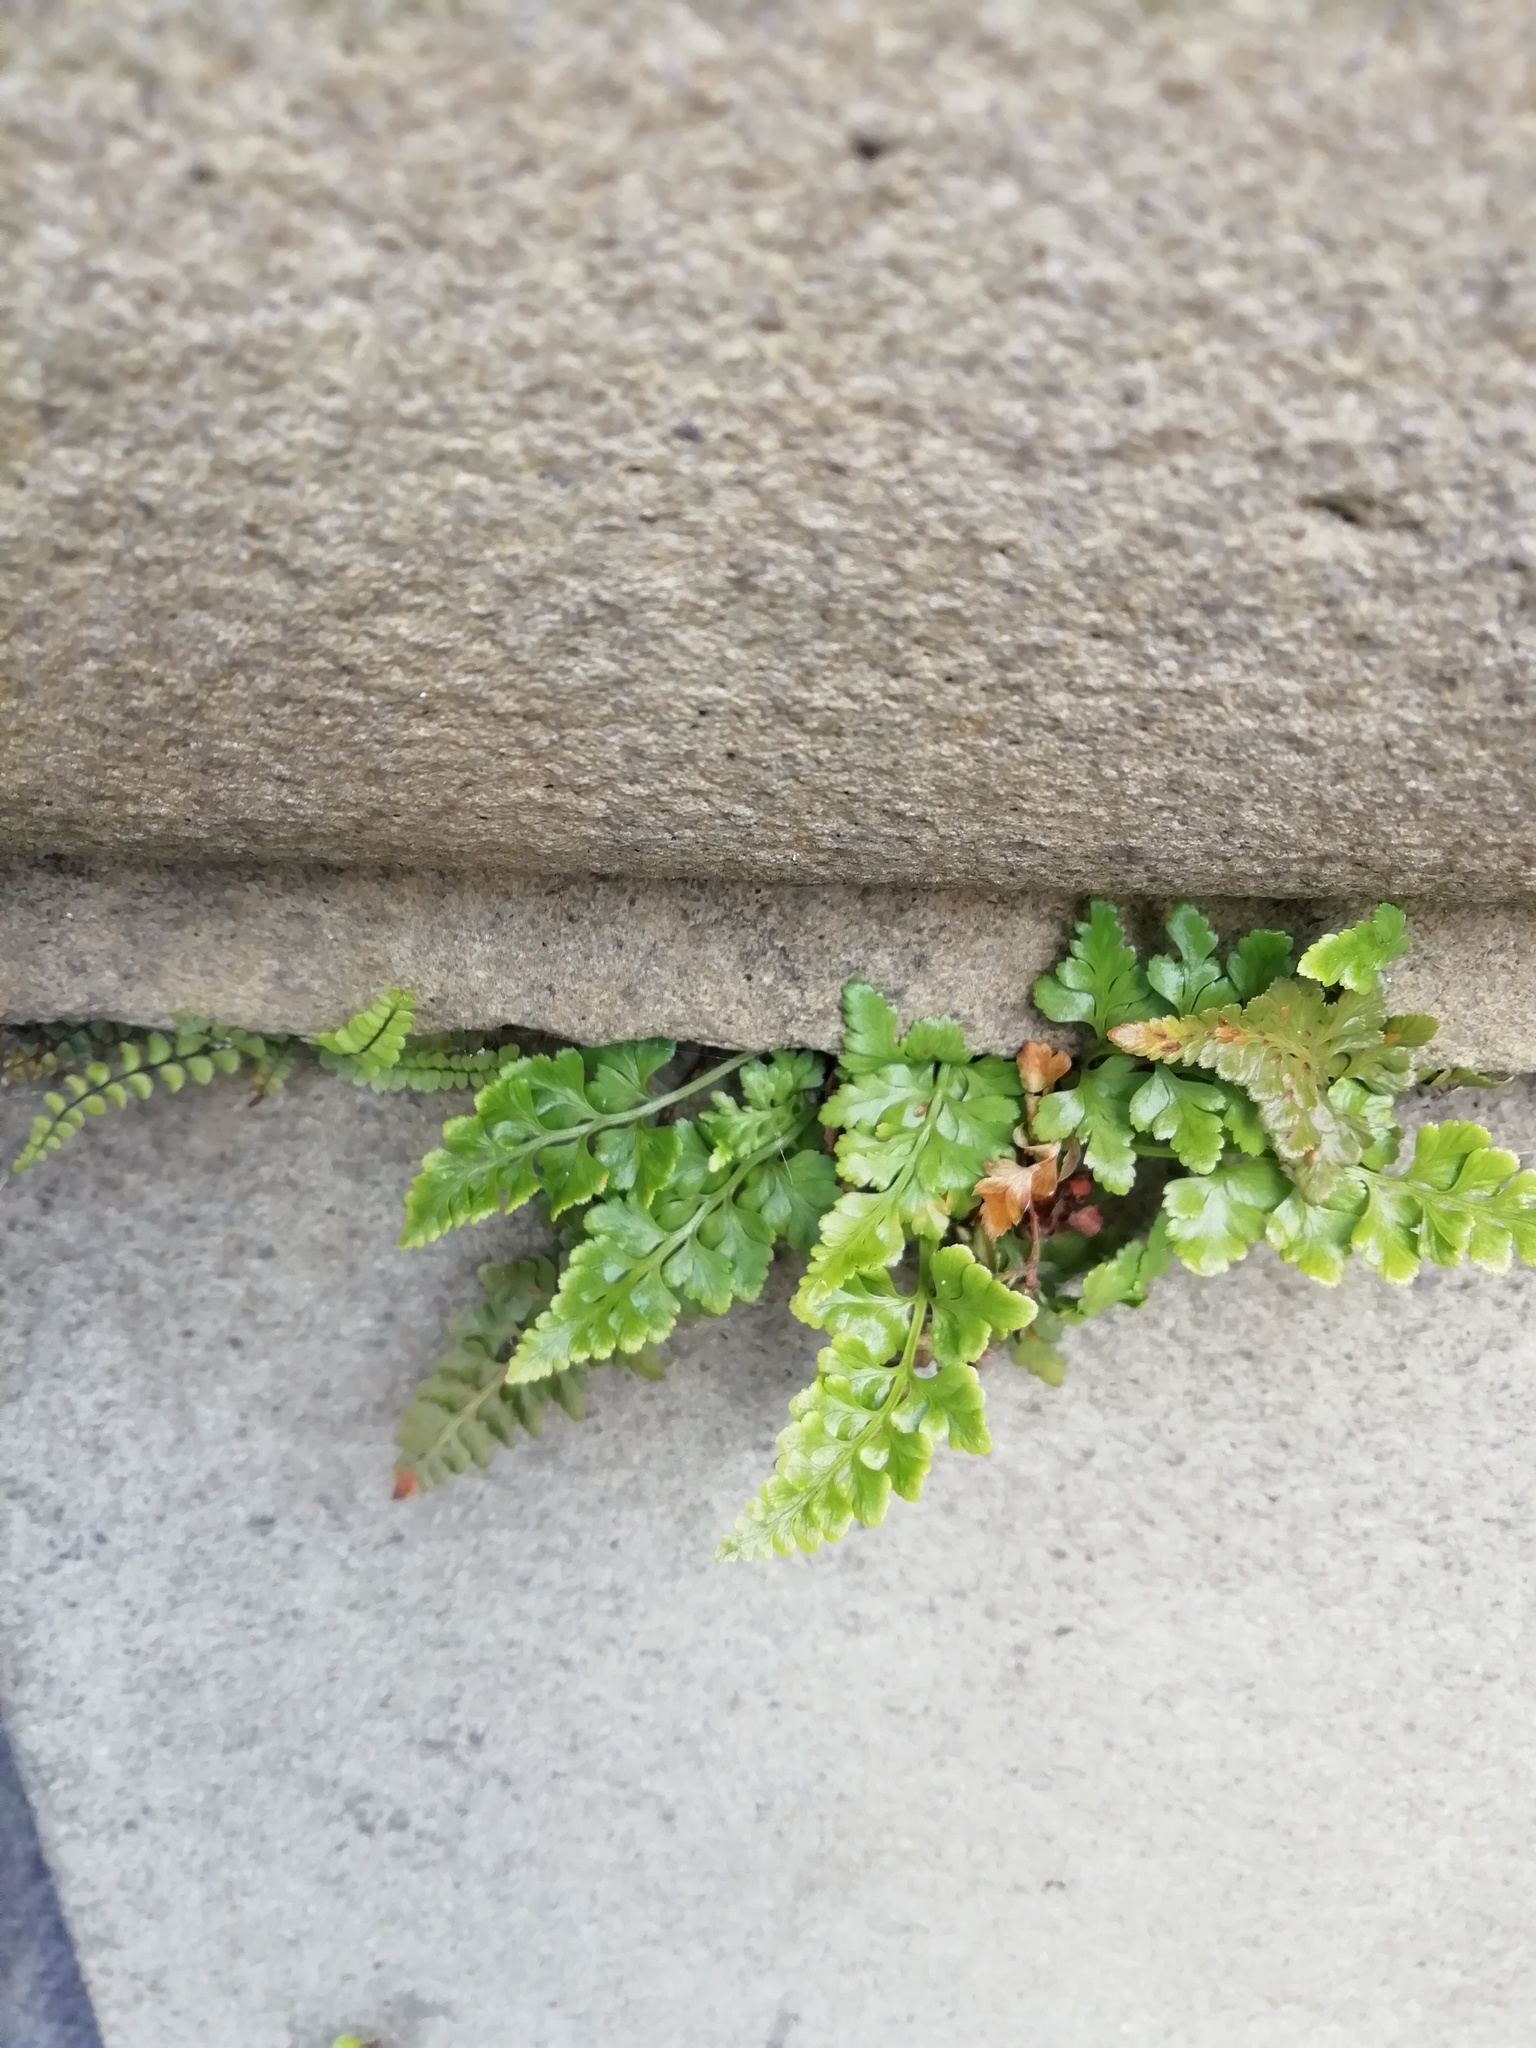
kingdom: Plantae
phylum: Tracheophyta
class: Polypodiopsida
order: Polypodiales
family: Aspleniaceae
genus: Asplenium
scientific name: Asplenium adiantum-nigrum
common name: Black spleenwort
